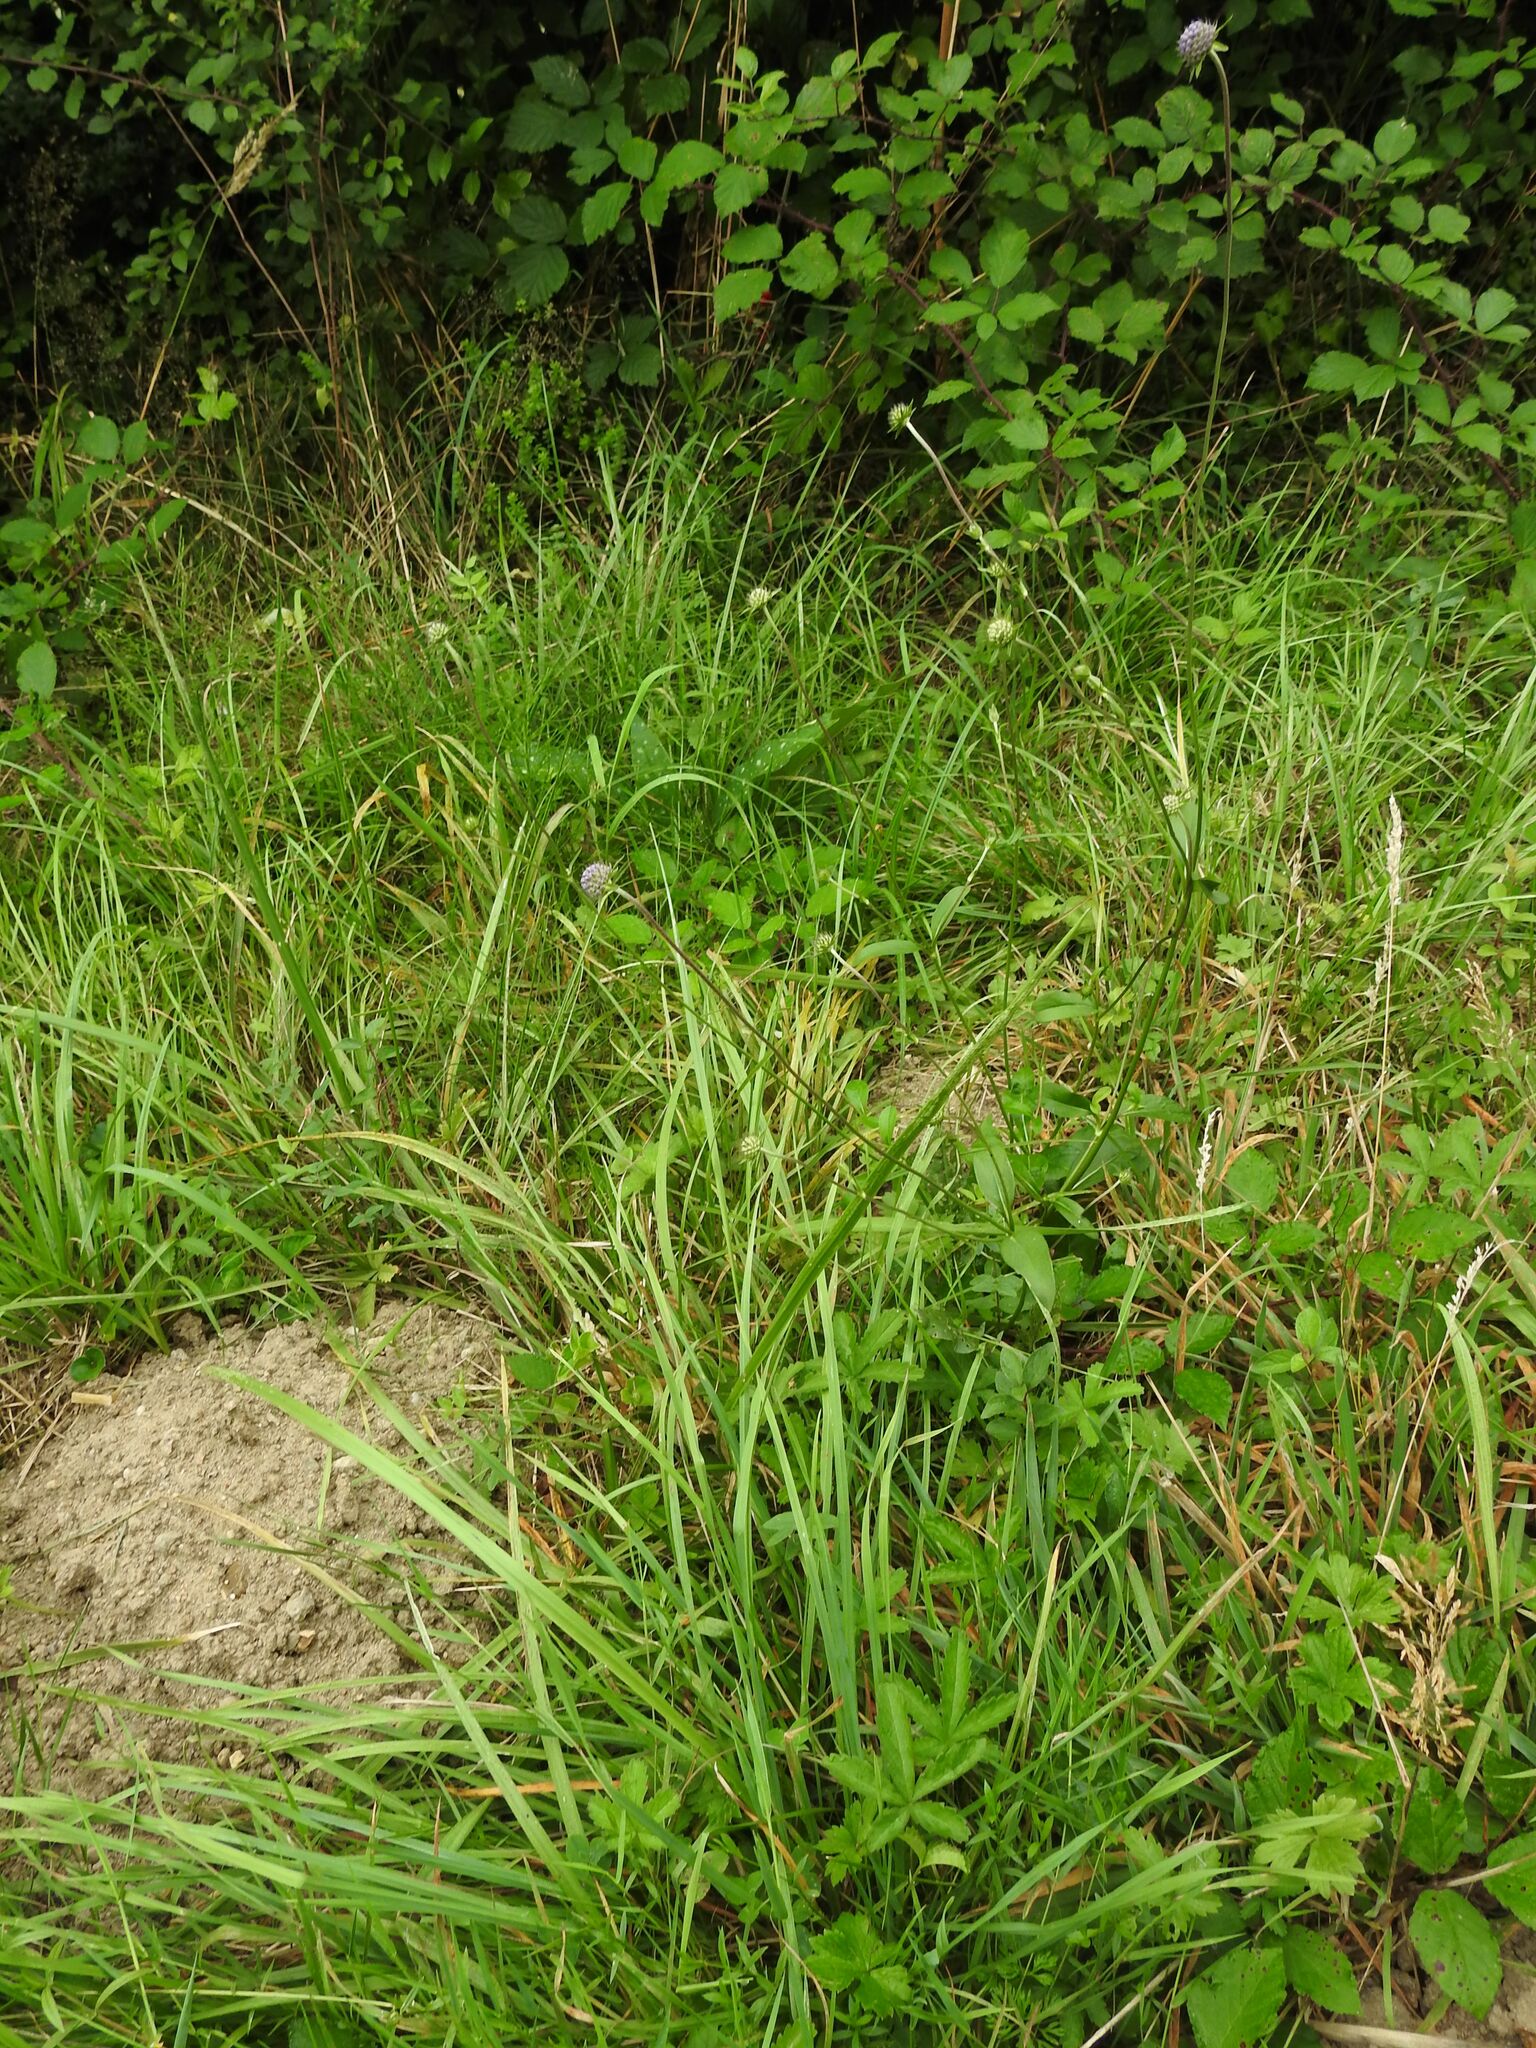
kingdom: Plantae
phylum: Tracheophyta
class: Magnoliopsida
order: Dipsacales
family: Caprifoliaceae
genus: Succisa
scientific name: Succisa pratensis
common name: Devil's-bit
